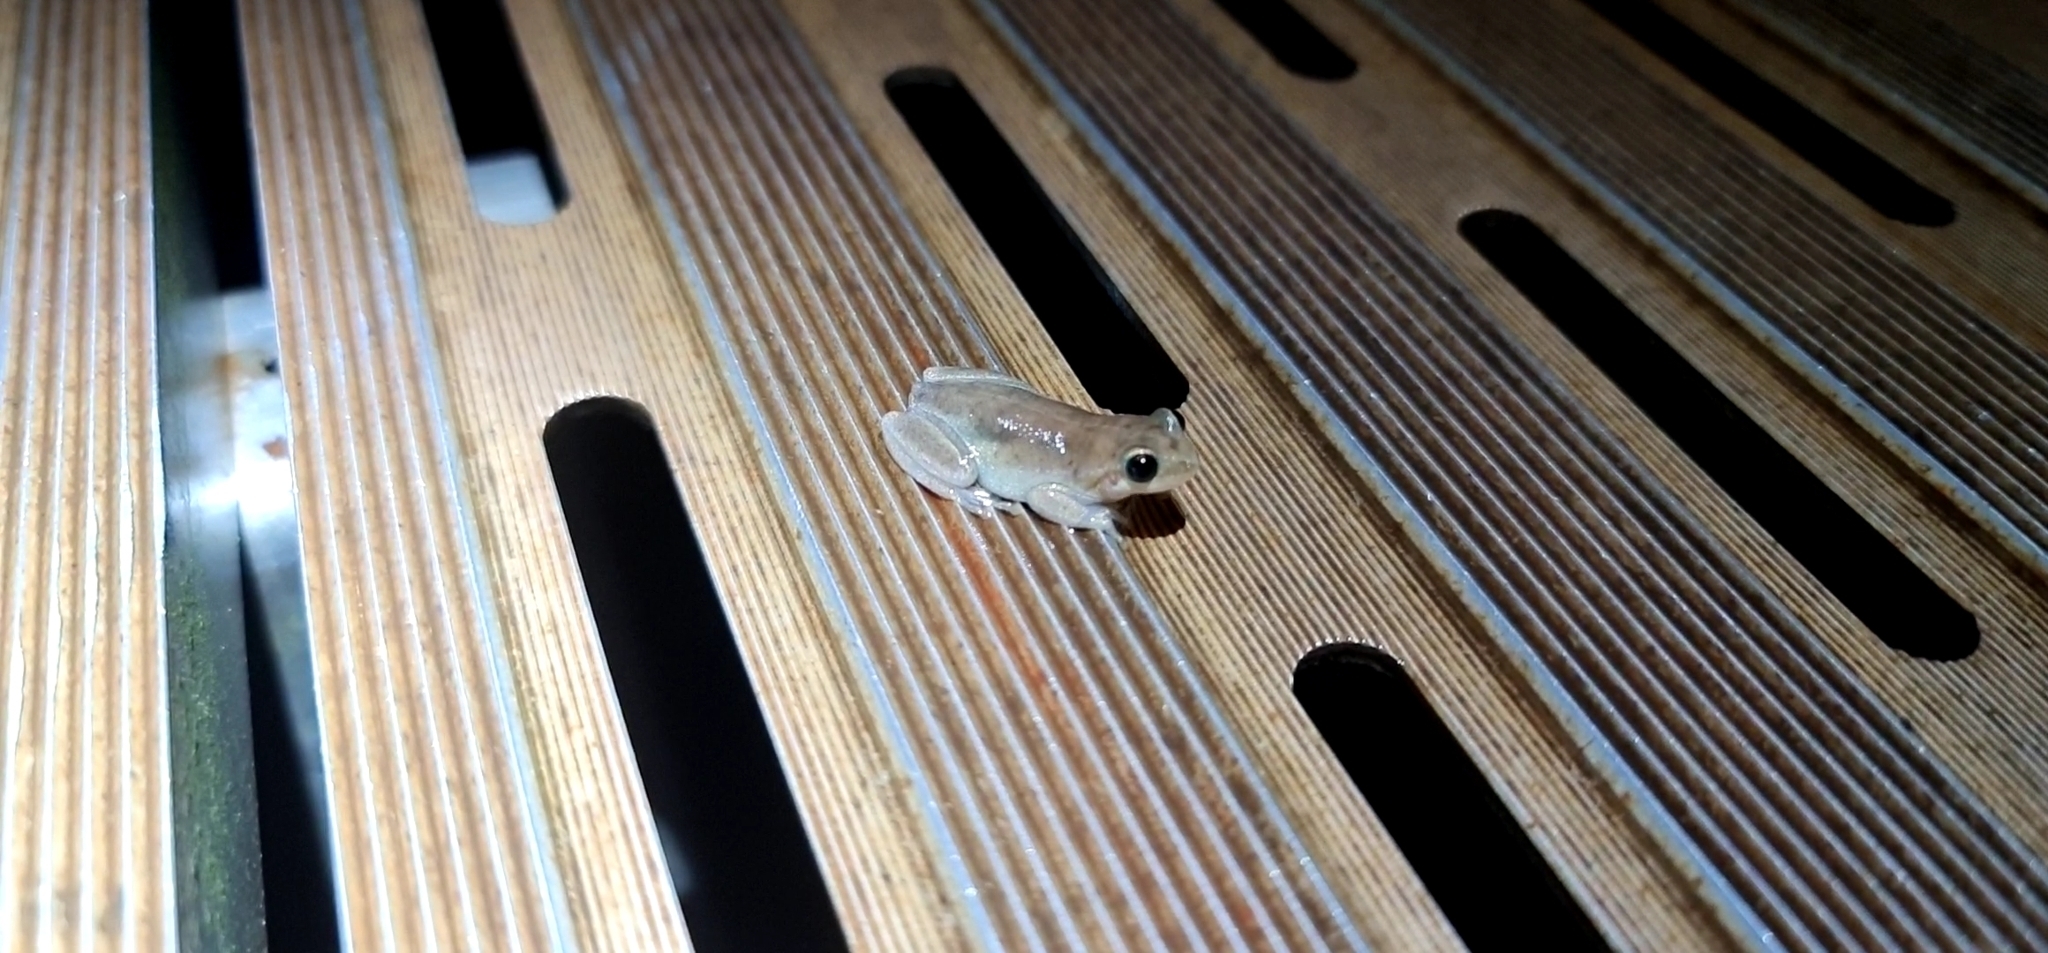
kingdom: Animalia
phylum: Chordata
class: Amphibia
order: Anura
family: Pelodryadidae
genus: Litoria
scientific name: Litoria rubella
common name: Desert tree frog
